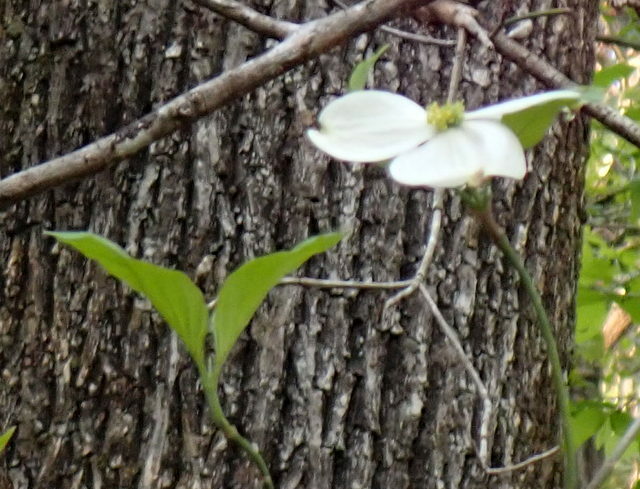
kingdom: Plantae
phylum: Tracheophyta
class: Magnoliopsida
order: Cornales
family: Cornaceae
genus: Cornus
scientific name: Cornus florida
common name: Flowering dogwood
